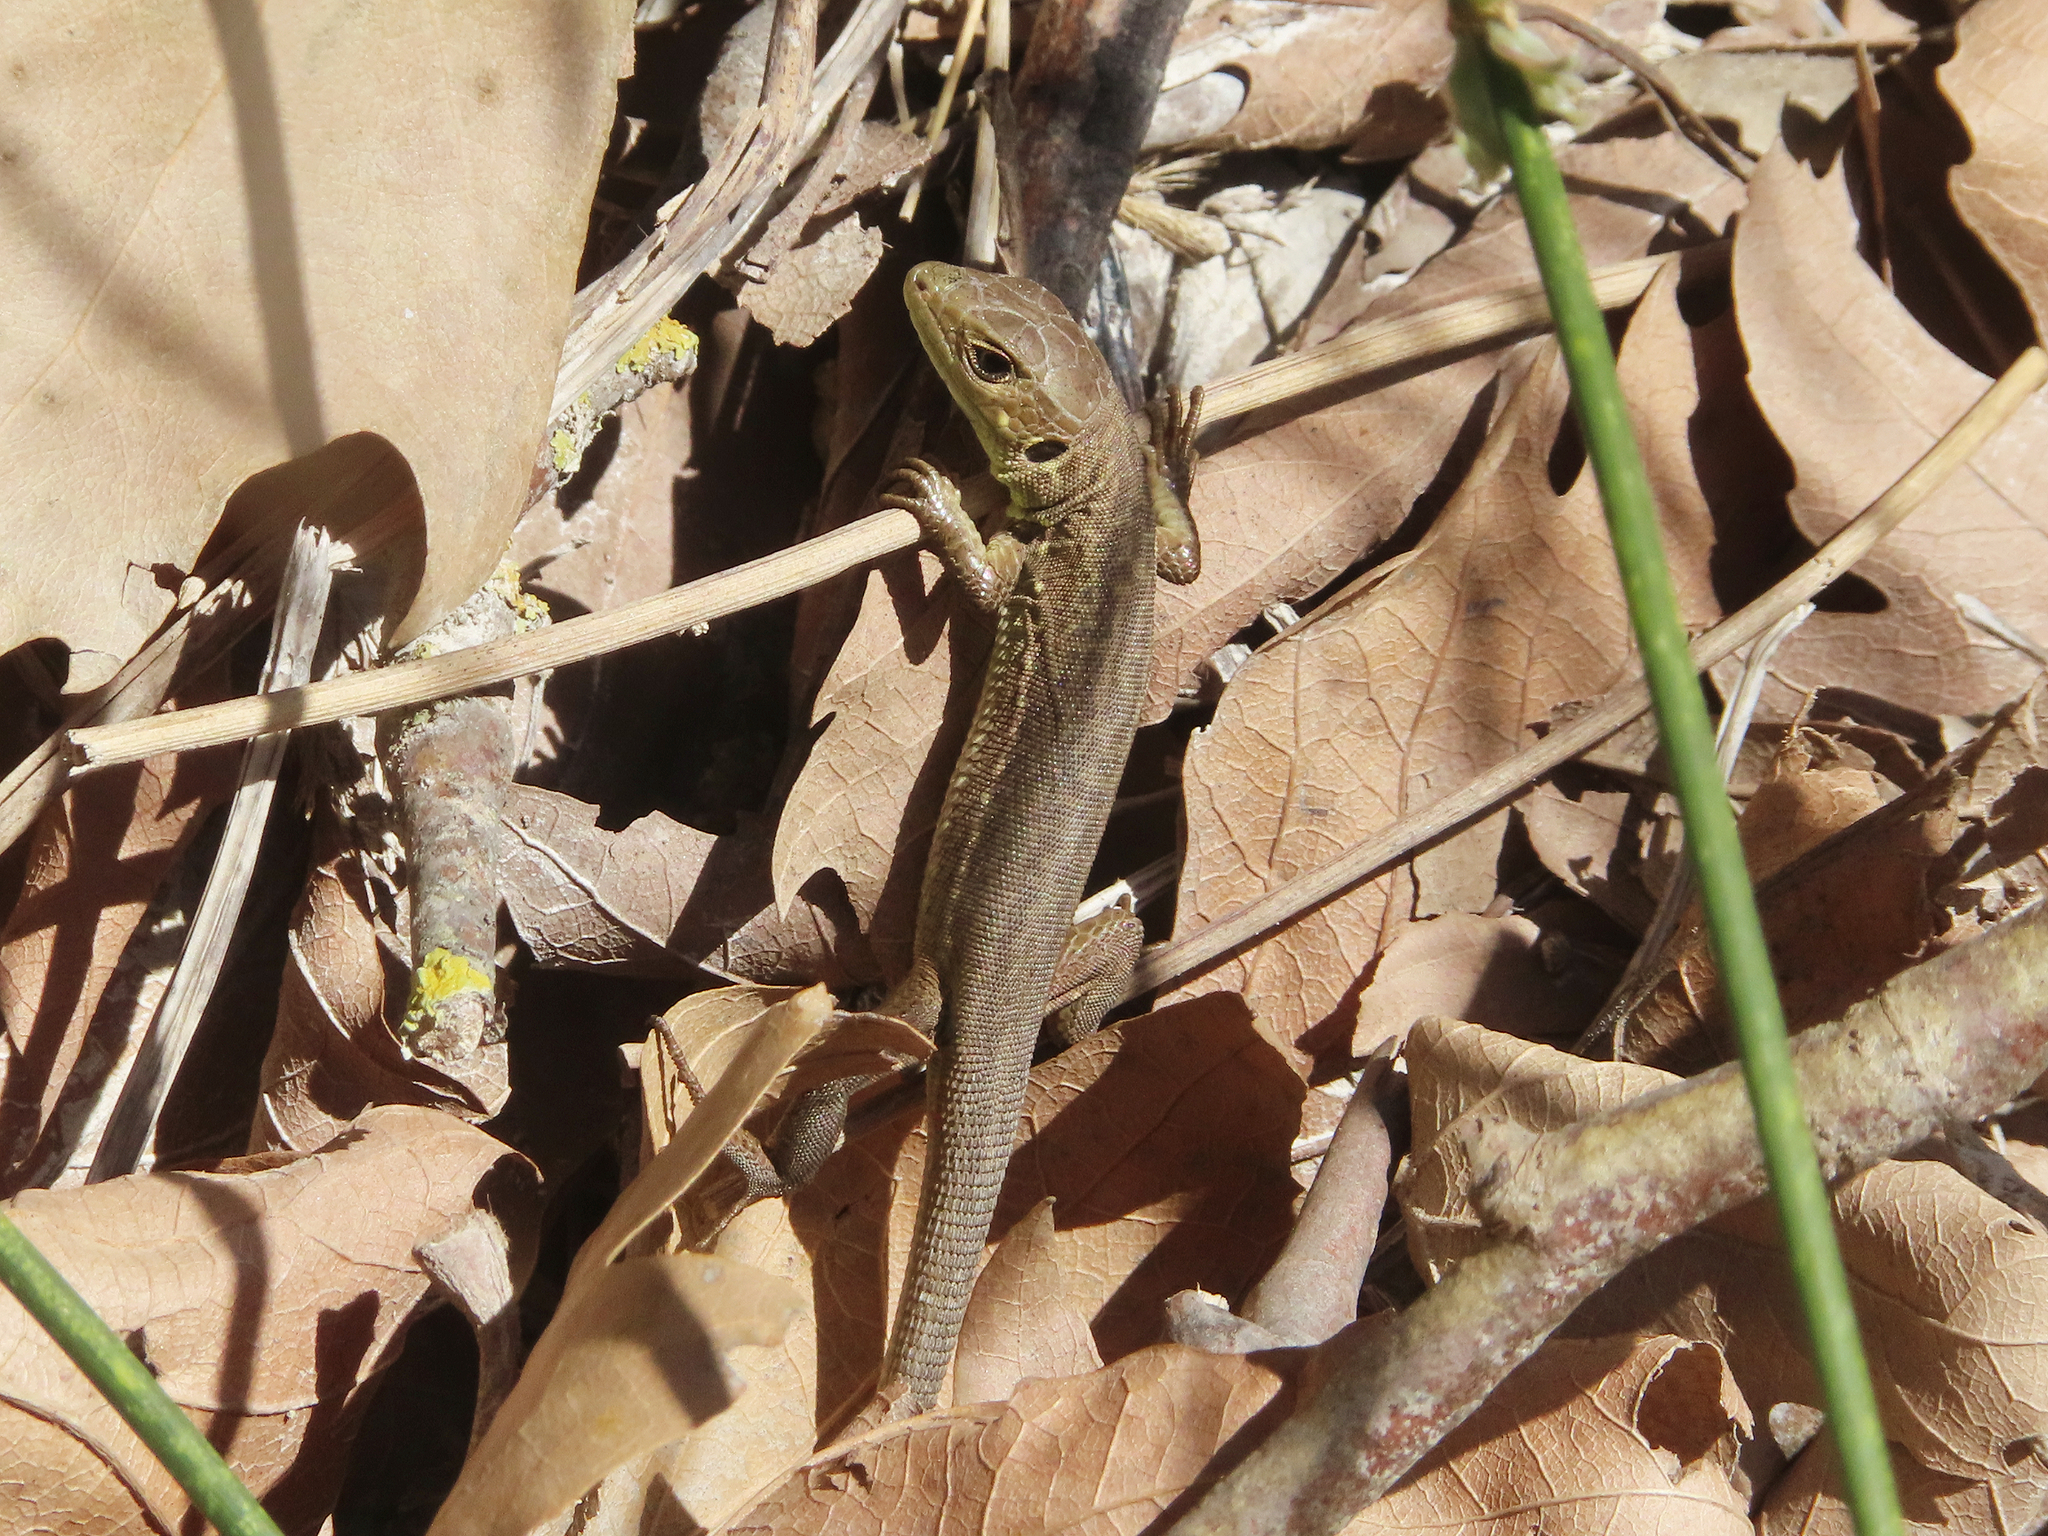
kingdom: Animalia
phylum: Chordata
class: Squamata
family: Lacertidae
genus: Lacerta
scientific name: Lacerta trilineata
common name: Balkan green lizard
